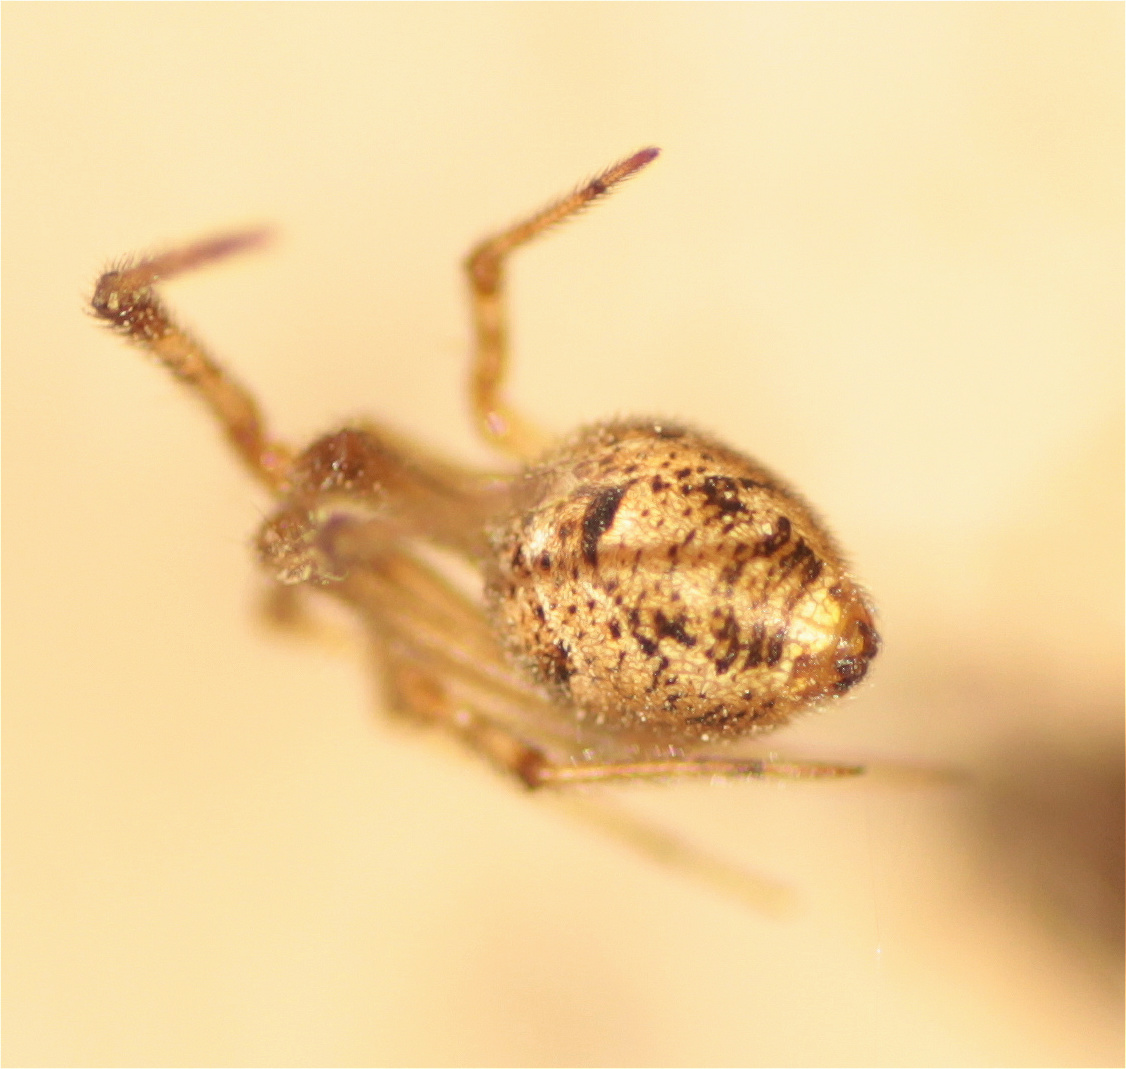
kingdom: Animalia
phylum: Arthropoda
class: Arachnida
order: Araneae
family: Theridiidae
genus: Parasteatoda
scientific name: Parasteatoda tepidariorum
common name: Common house spider
